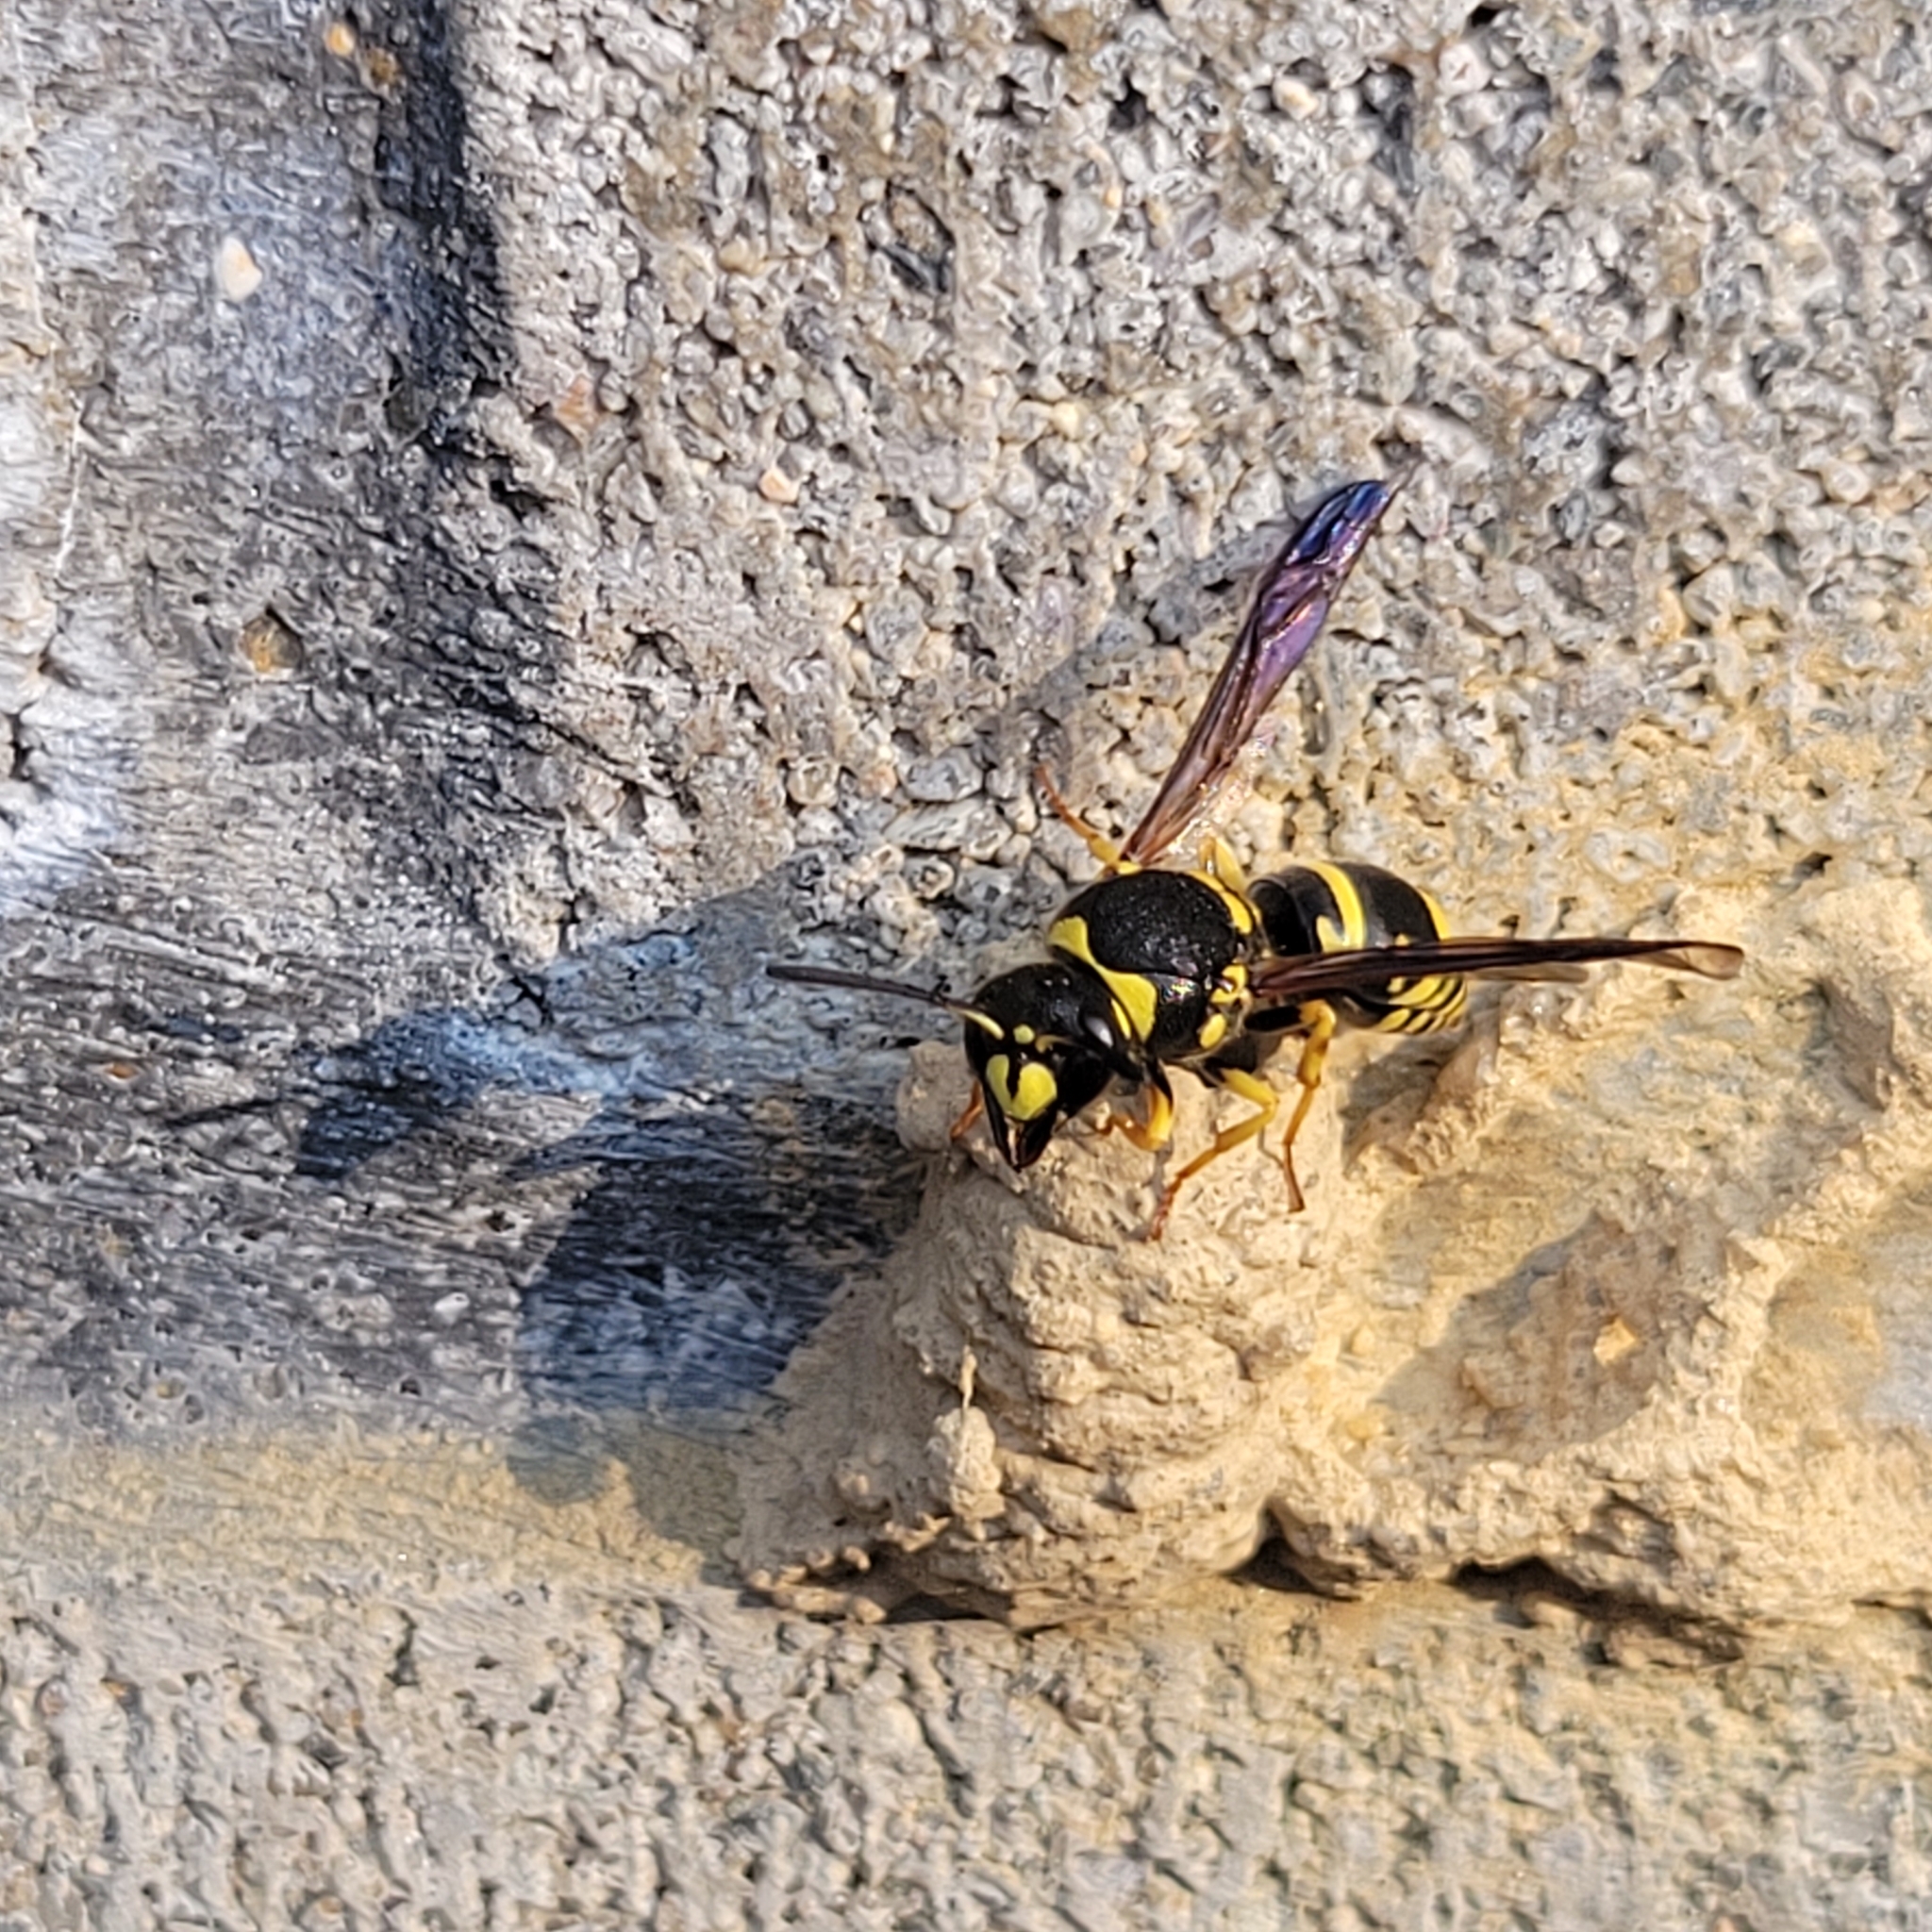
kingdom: Animalia
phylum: Arthropoda
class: Insecta
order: Hymenoptera
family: Vespidae
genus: Ancistrocerus
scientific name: Ancistrocerus lutonidus
